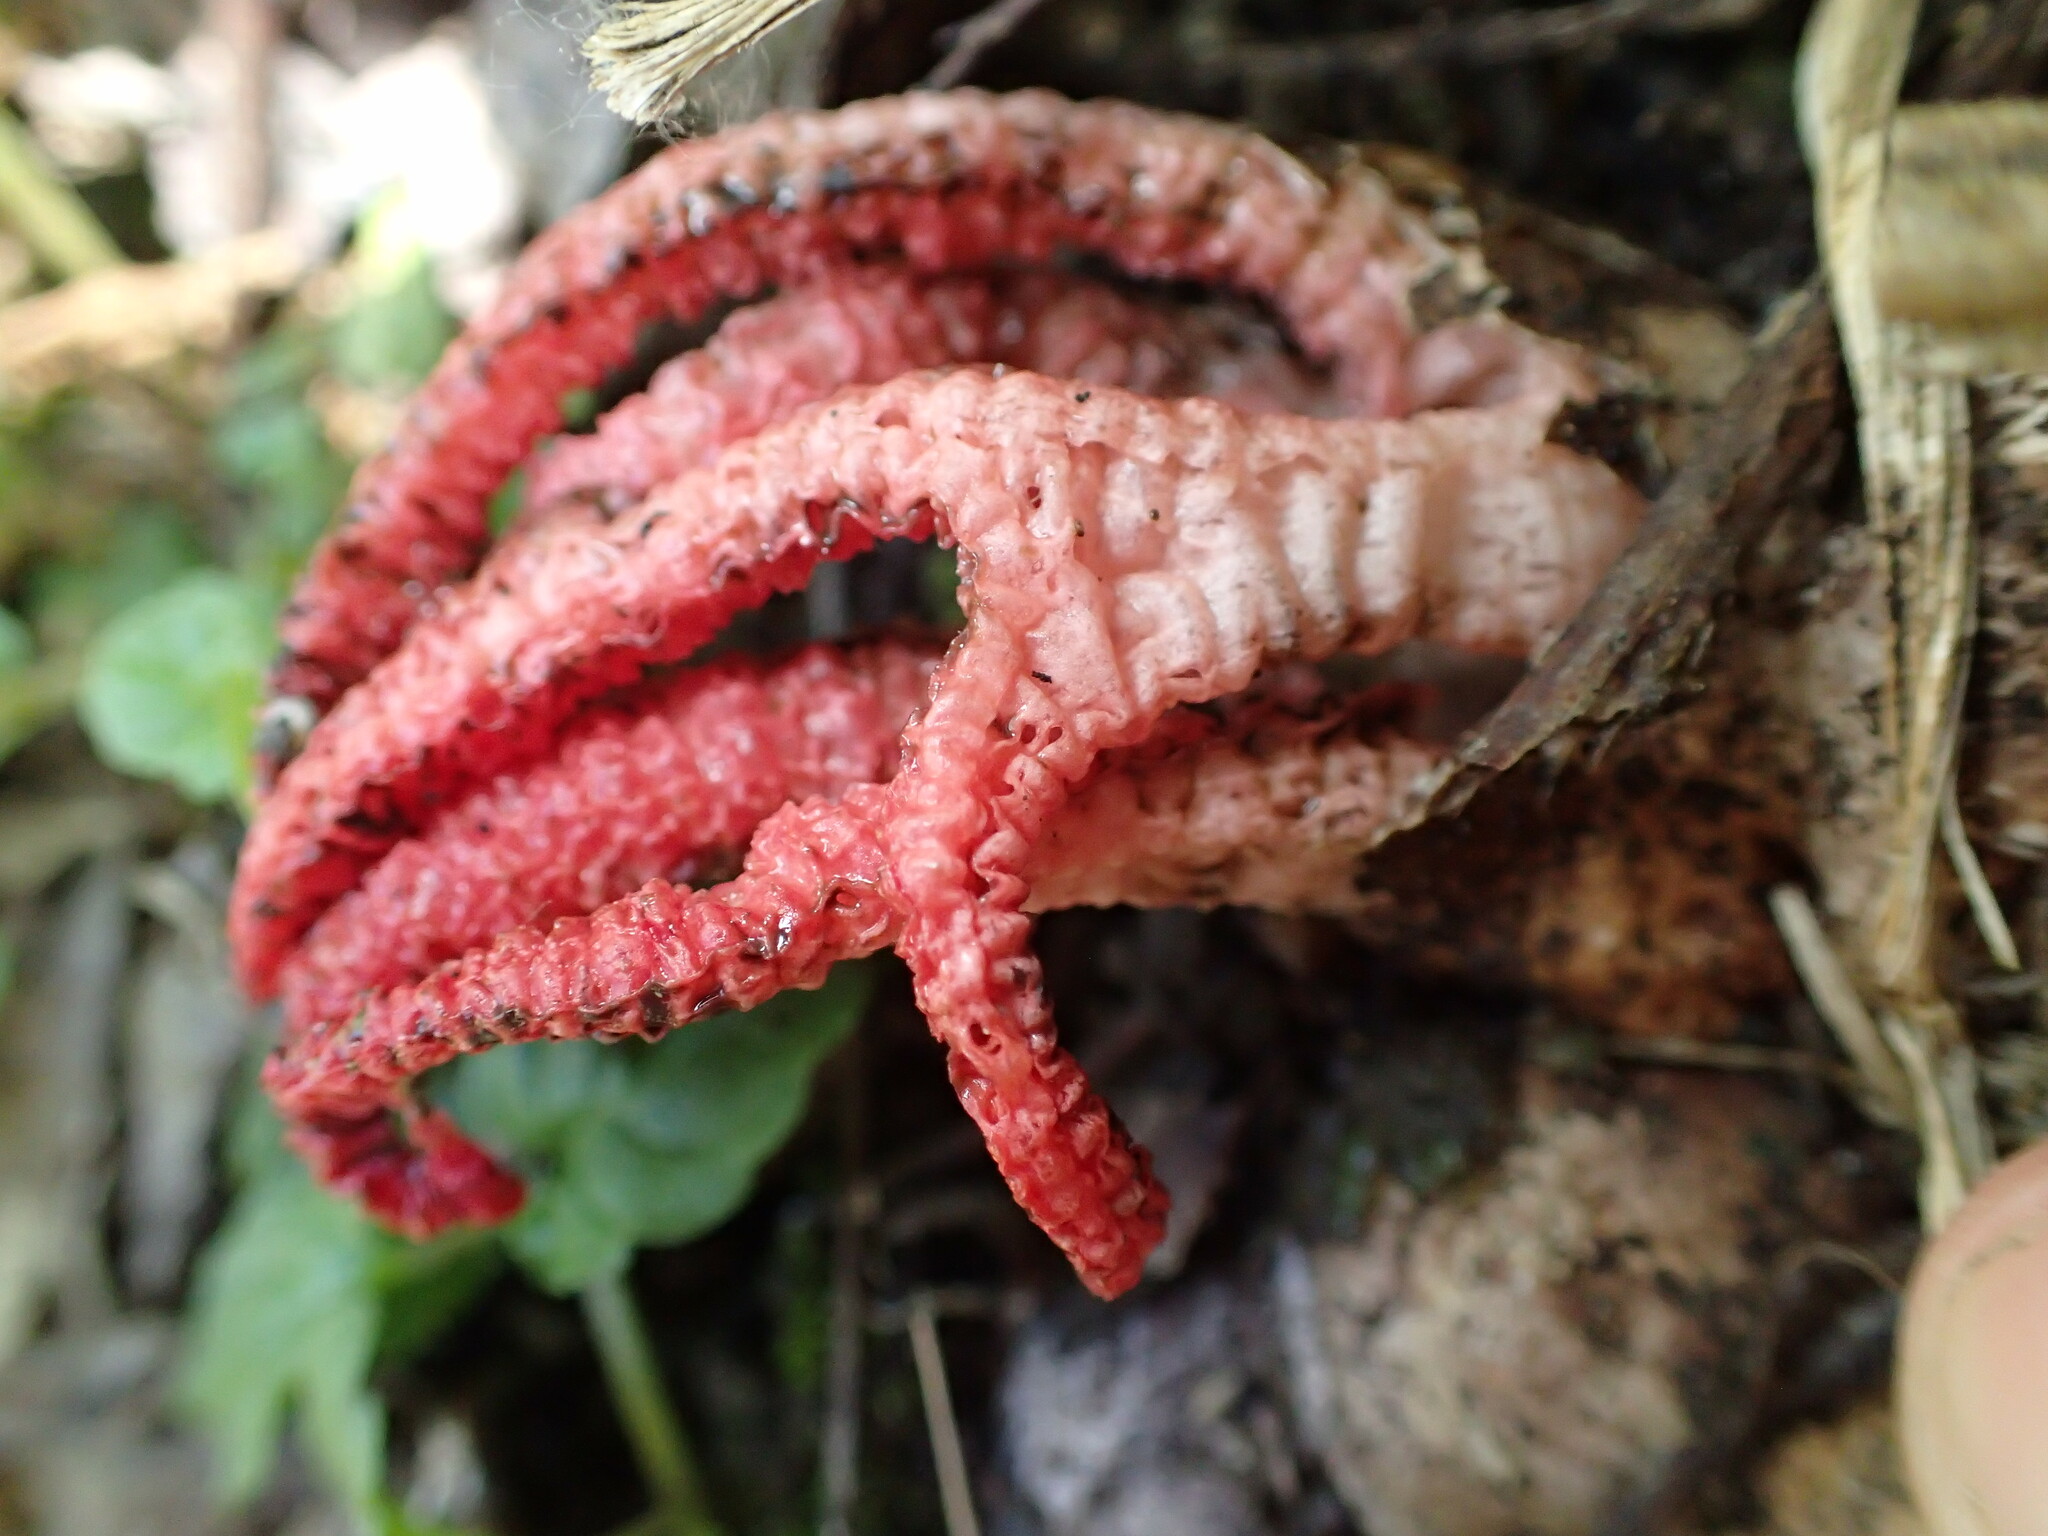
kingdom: Fungi
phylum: Basidiomycota
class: Agaricomycetes
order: Phallales
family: Phallaceae
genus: Clathrus
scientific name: Clathrus archeri
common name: Devil's fingers
